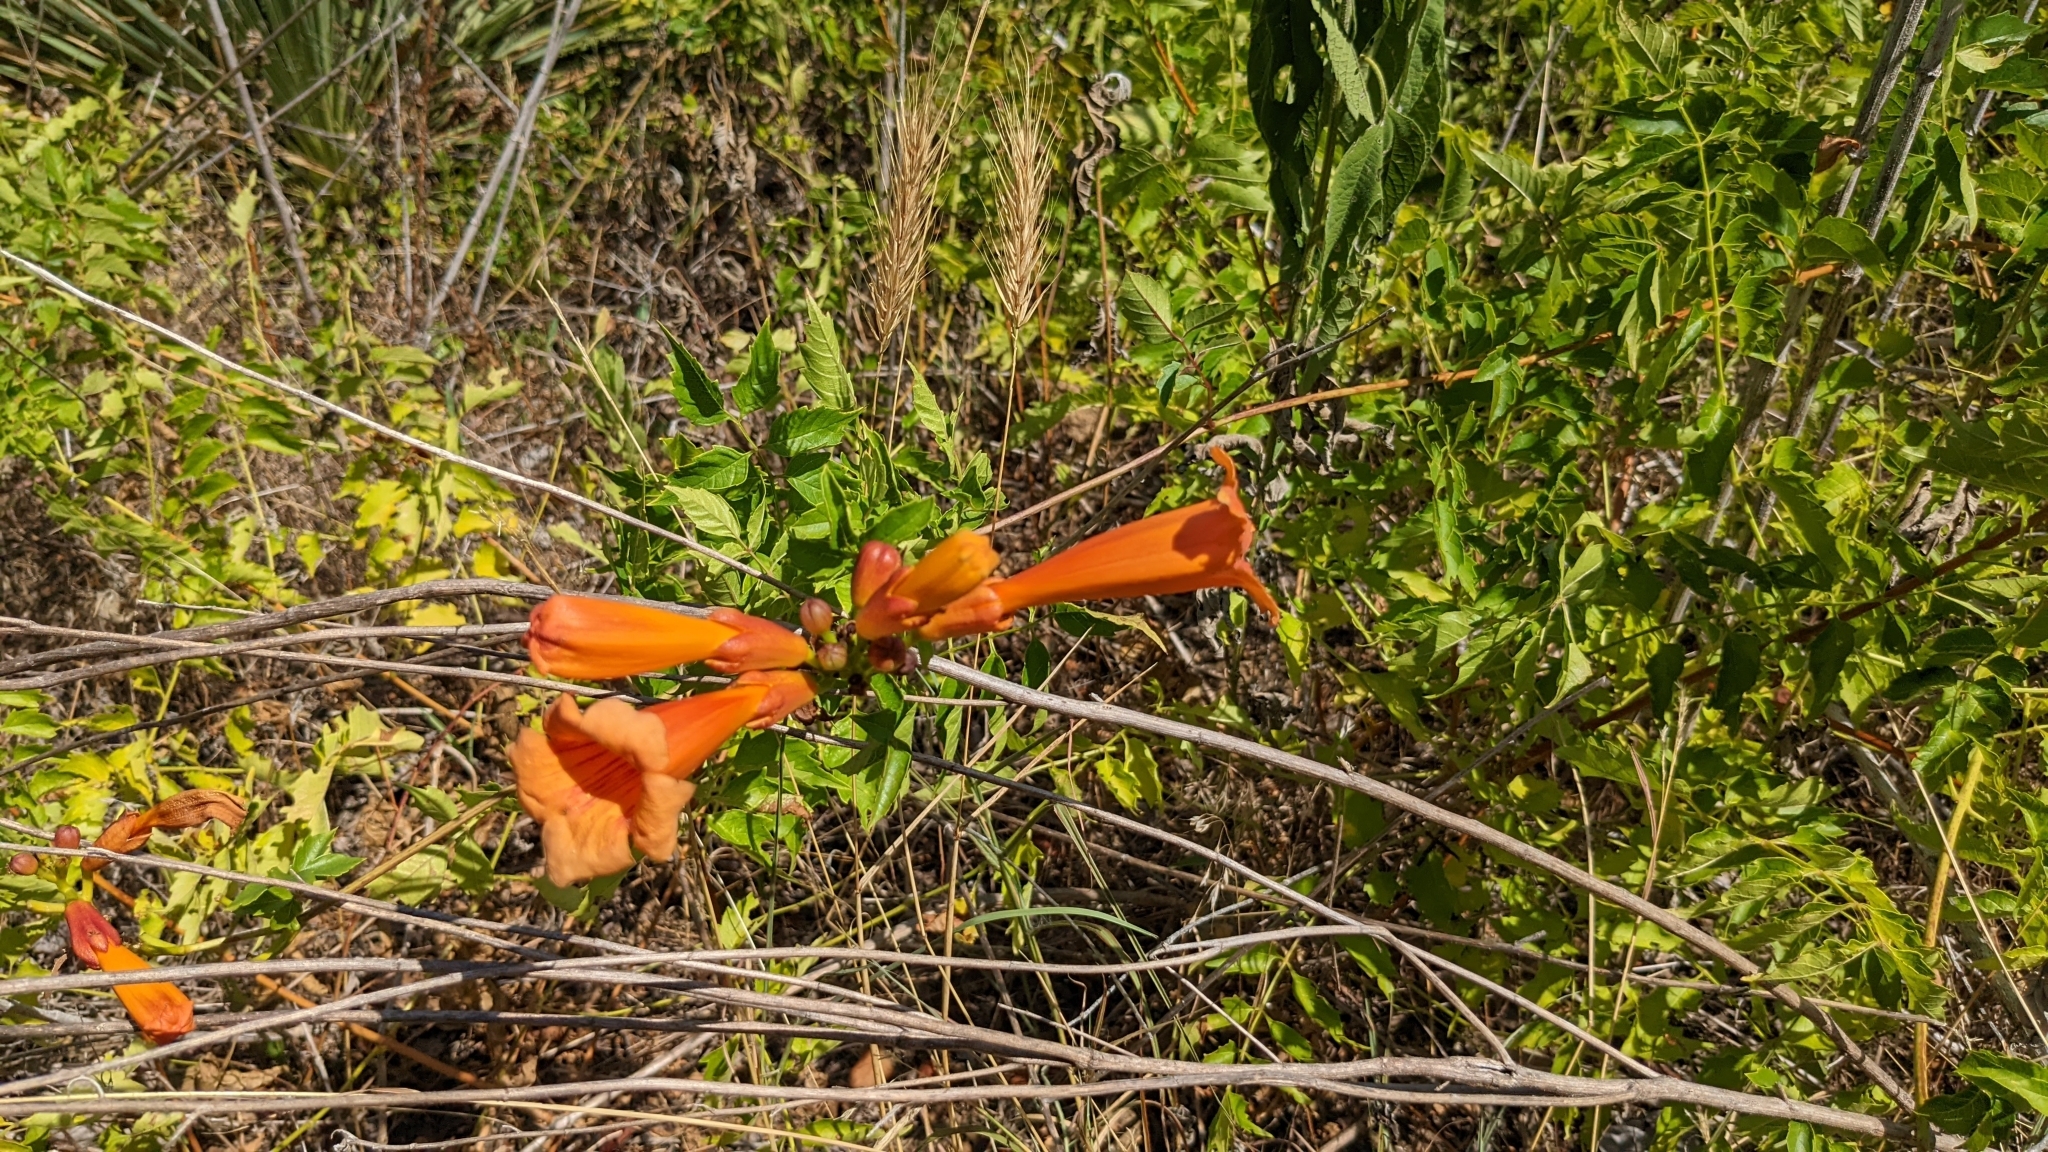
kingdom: Plantae
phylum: Tracheophyta
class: Magnoliopsida
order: Lamiales
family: Bignoniaceae
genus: Campsis
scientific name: Campsis radicans
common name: Trumpet-creeper
